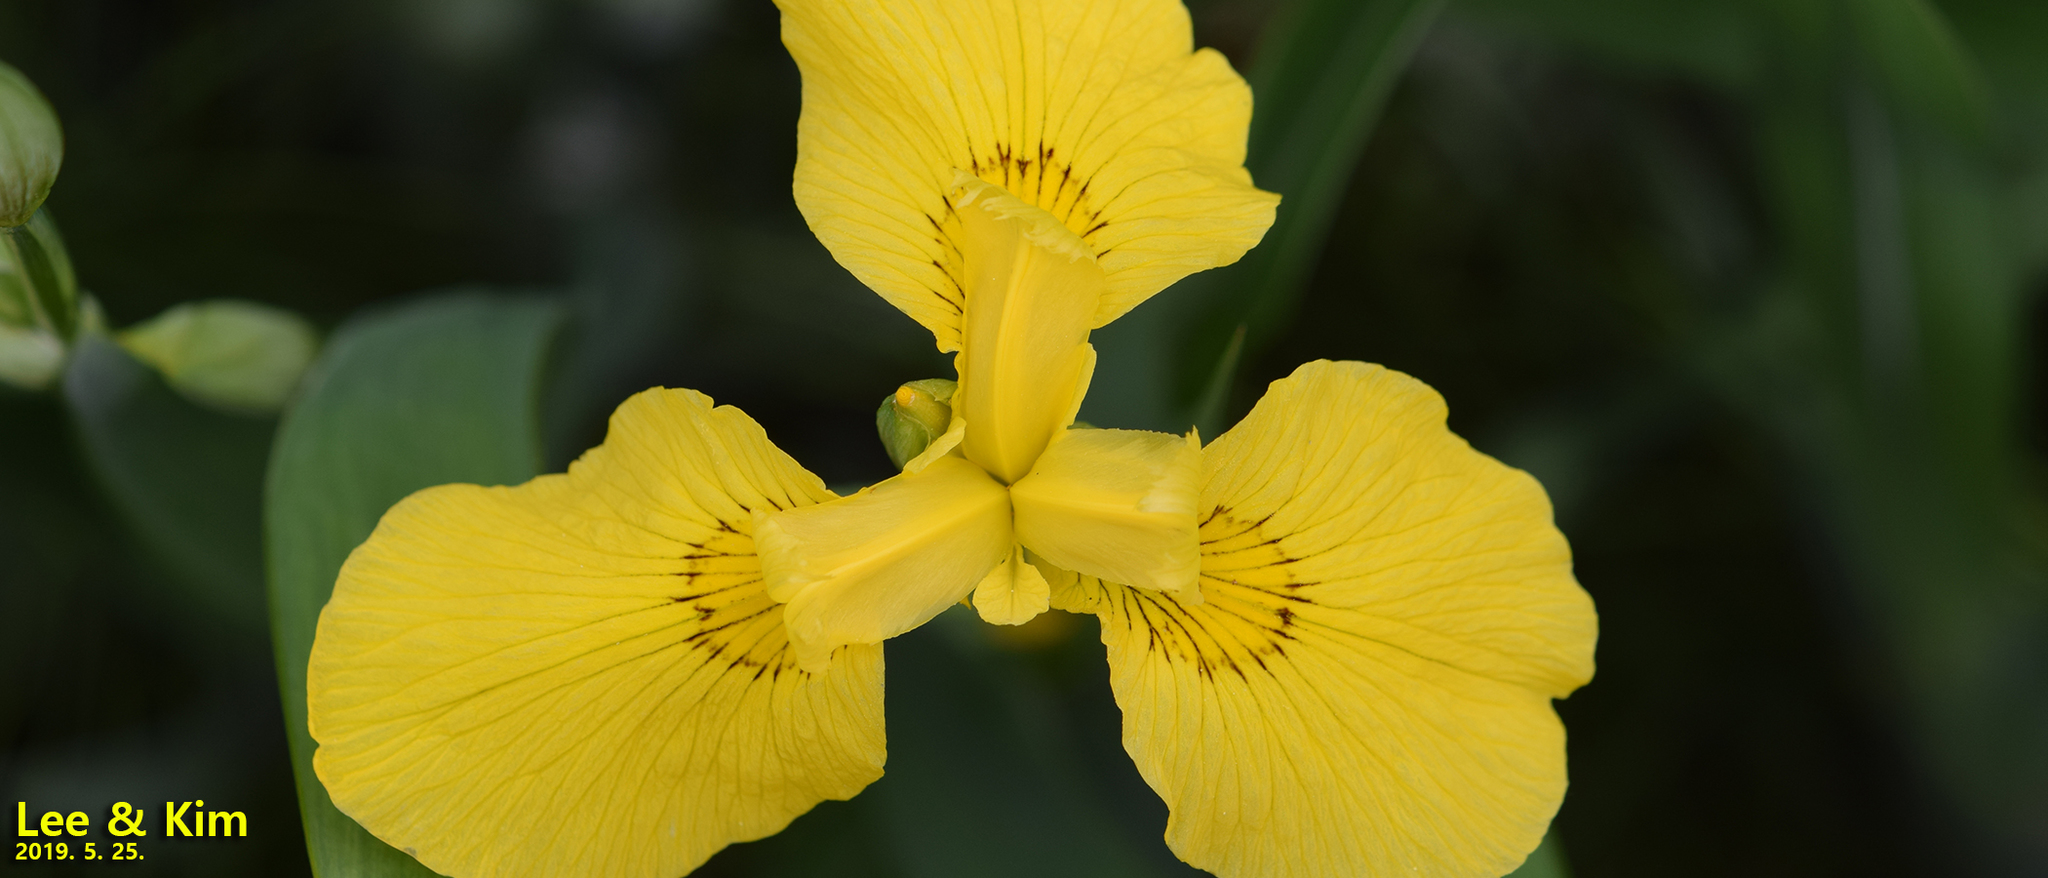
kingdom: Plantae
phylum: Tracheophyta
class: Liliopsida
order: Asparagales
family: Iridaceae
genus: Iris
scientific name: Iris pseudacorus
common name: Yellow flag
